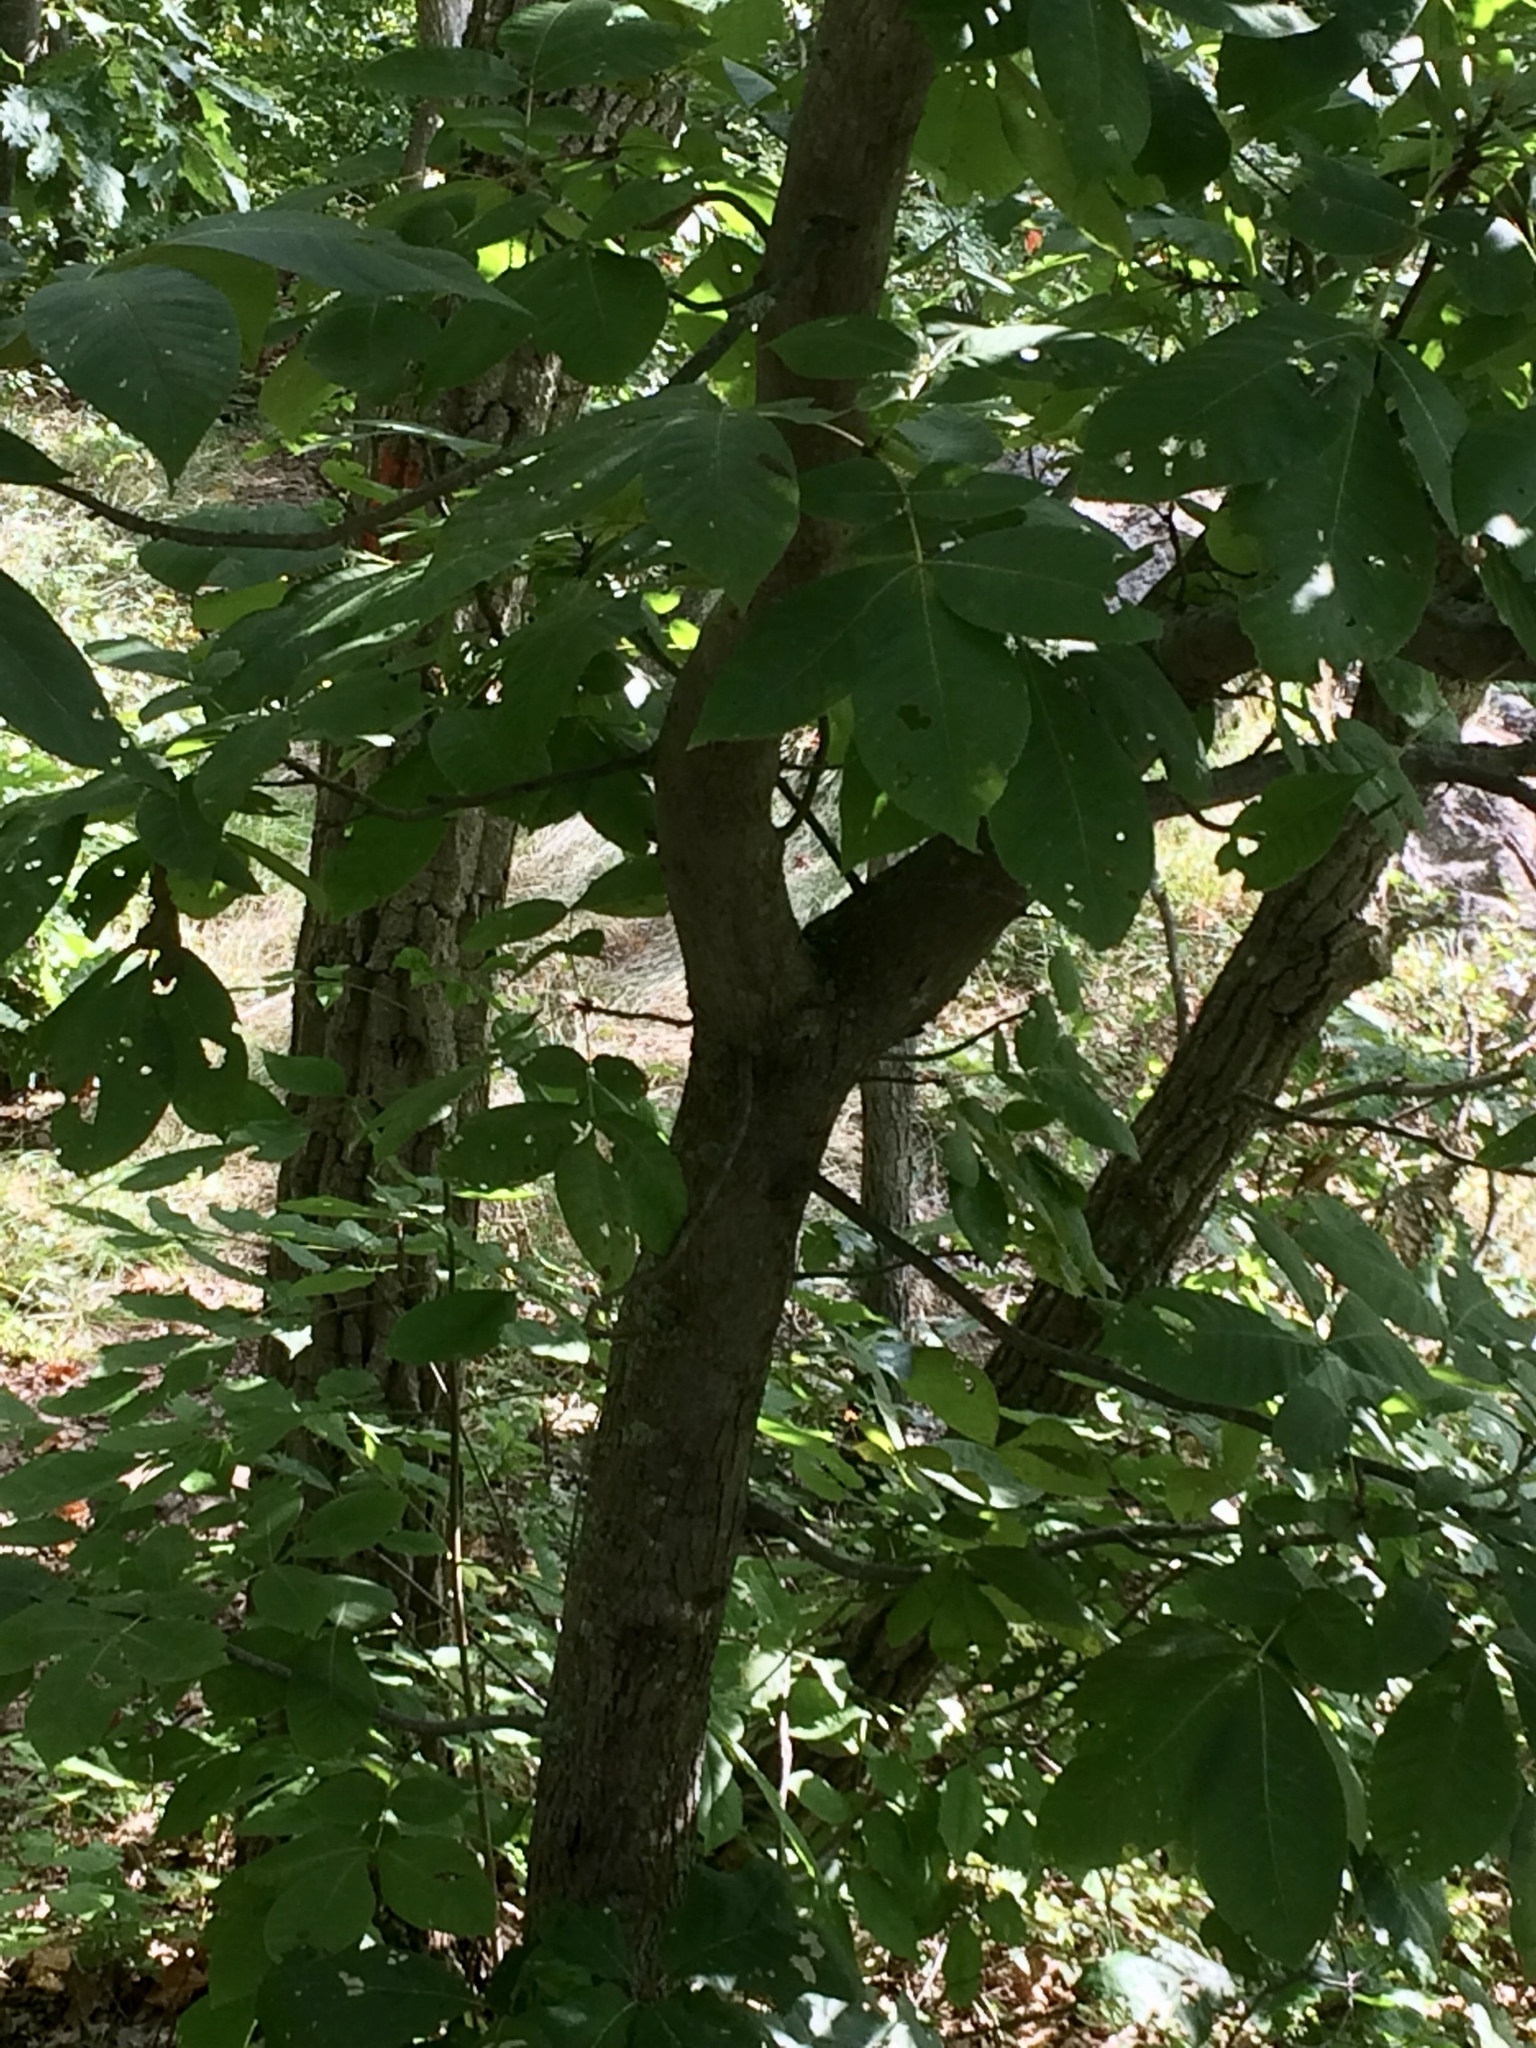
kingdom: Plantae
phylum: Tracheophyta
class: Magnoliopsida
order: Fagales
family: Juglandaceae
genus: Carya
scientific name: Carya glabra
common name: Pignut hickory
